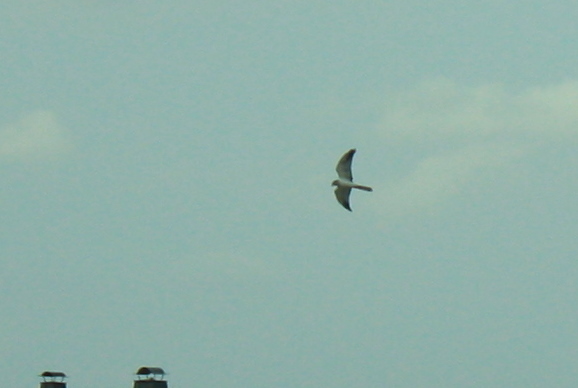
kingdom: Animalia
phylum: Chordata
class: Aves
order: Accipitriformes
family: Accipitridae
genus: Circus
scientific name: Circus macrourus
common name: Pallid harrier
